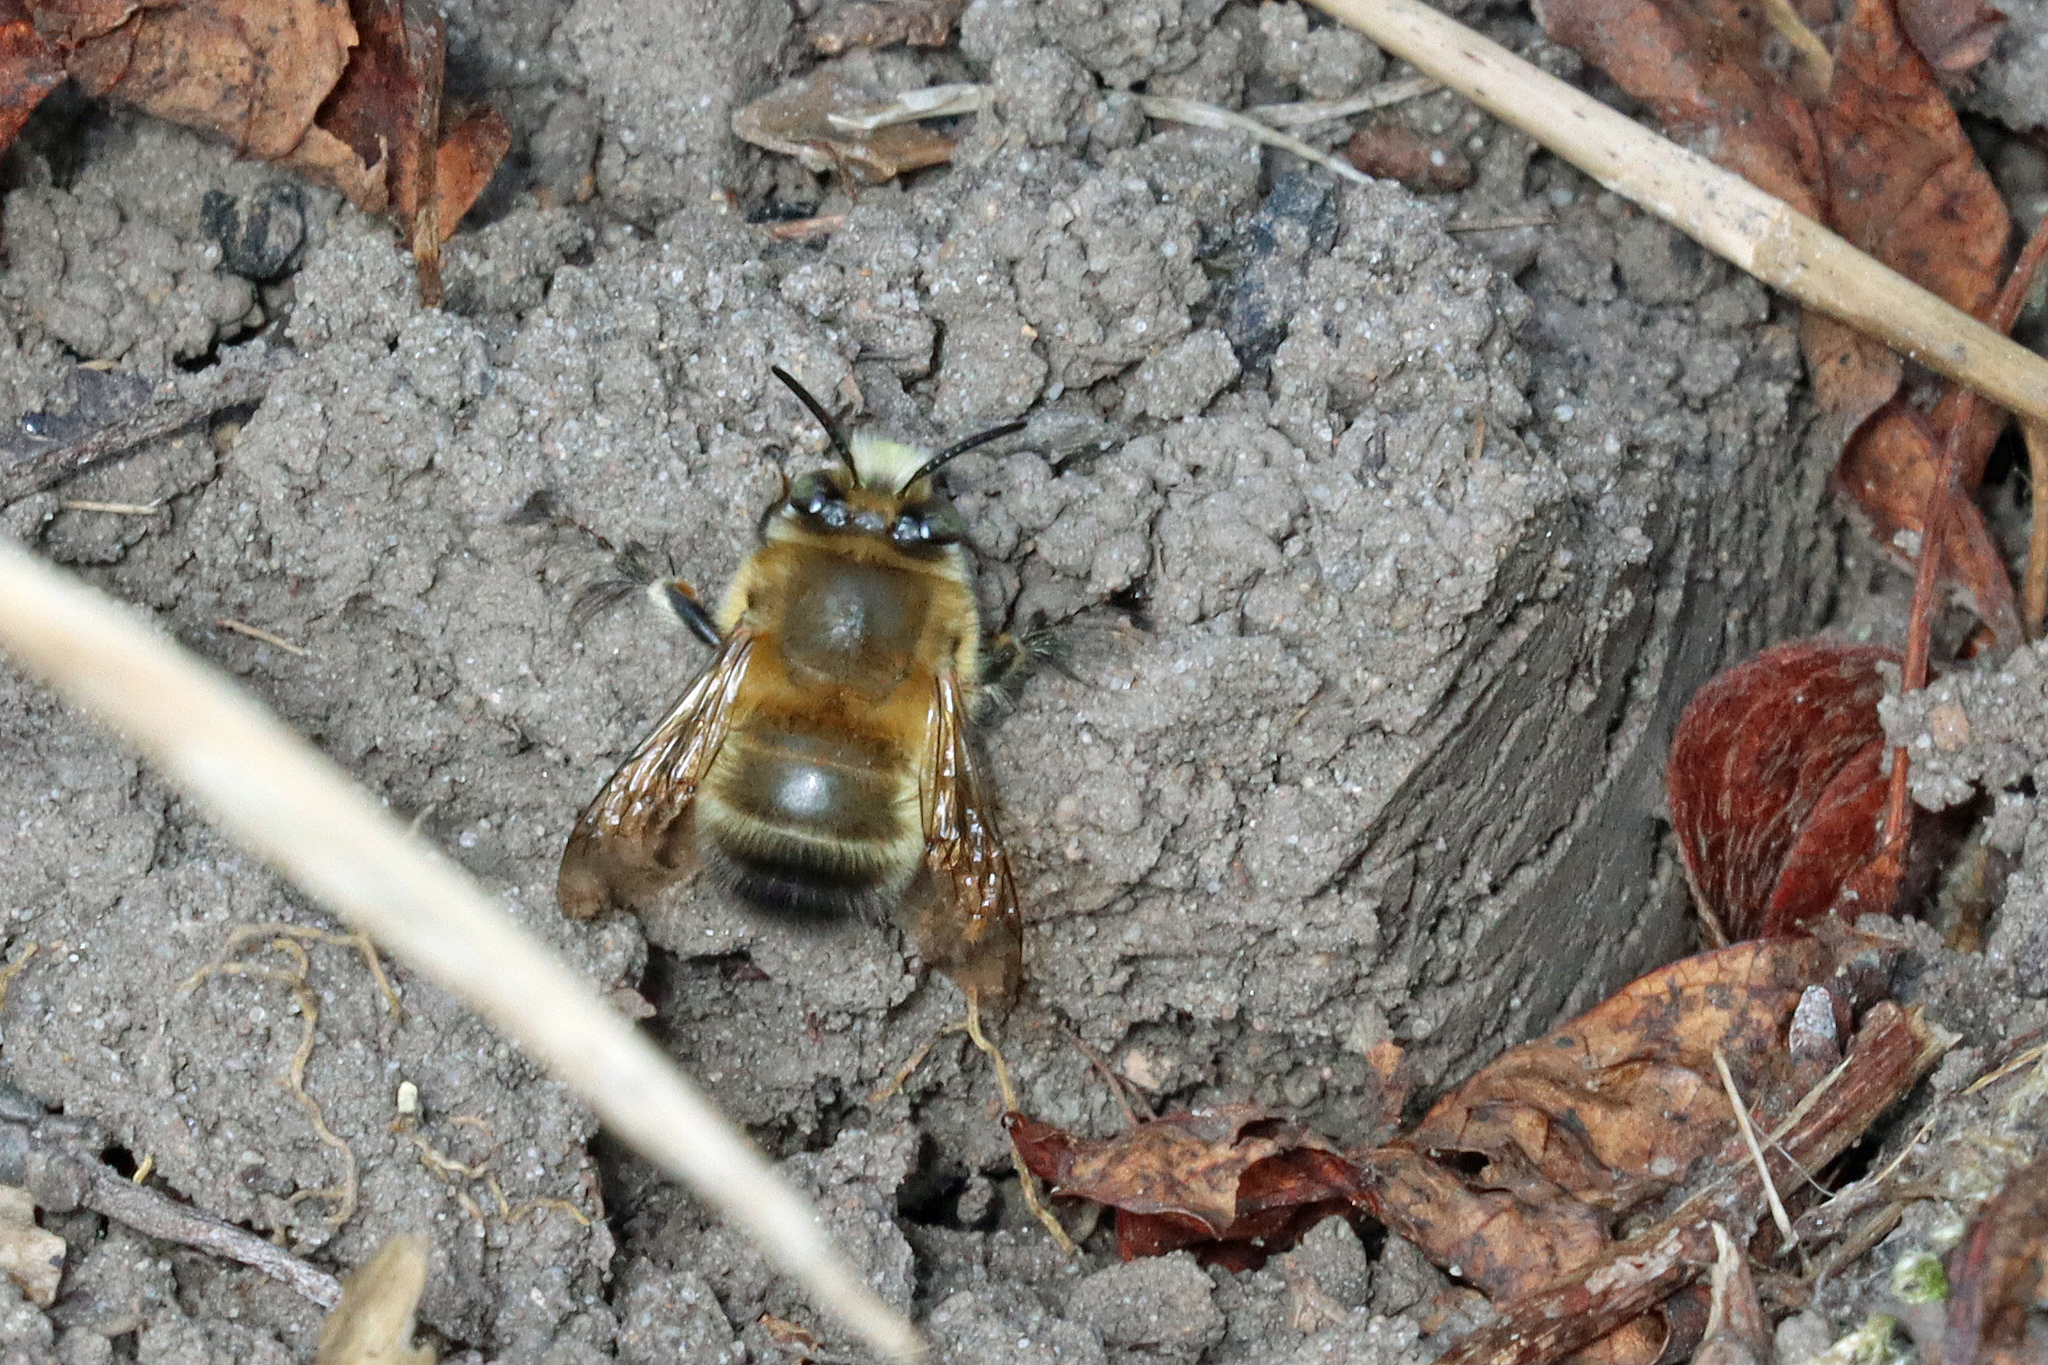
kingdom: Animalia
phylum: Arthropoda
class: Insecta
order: Hymenoptera
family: Apidae
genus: Anthophora
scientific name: Anthophora plumipes
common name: Hairy-footed flower bee
